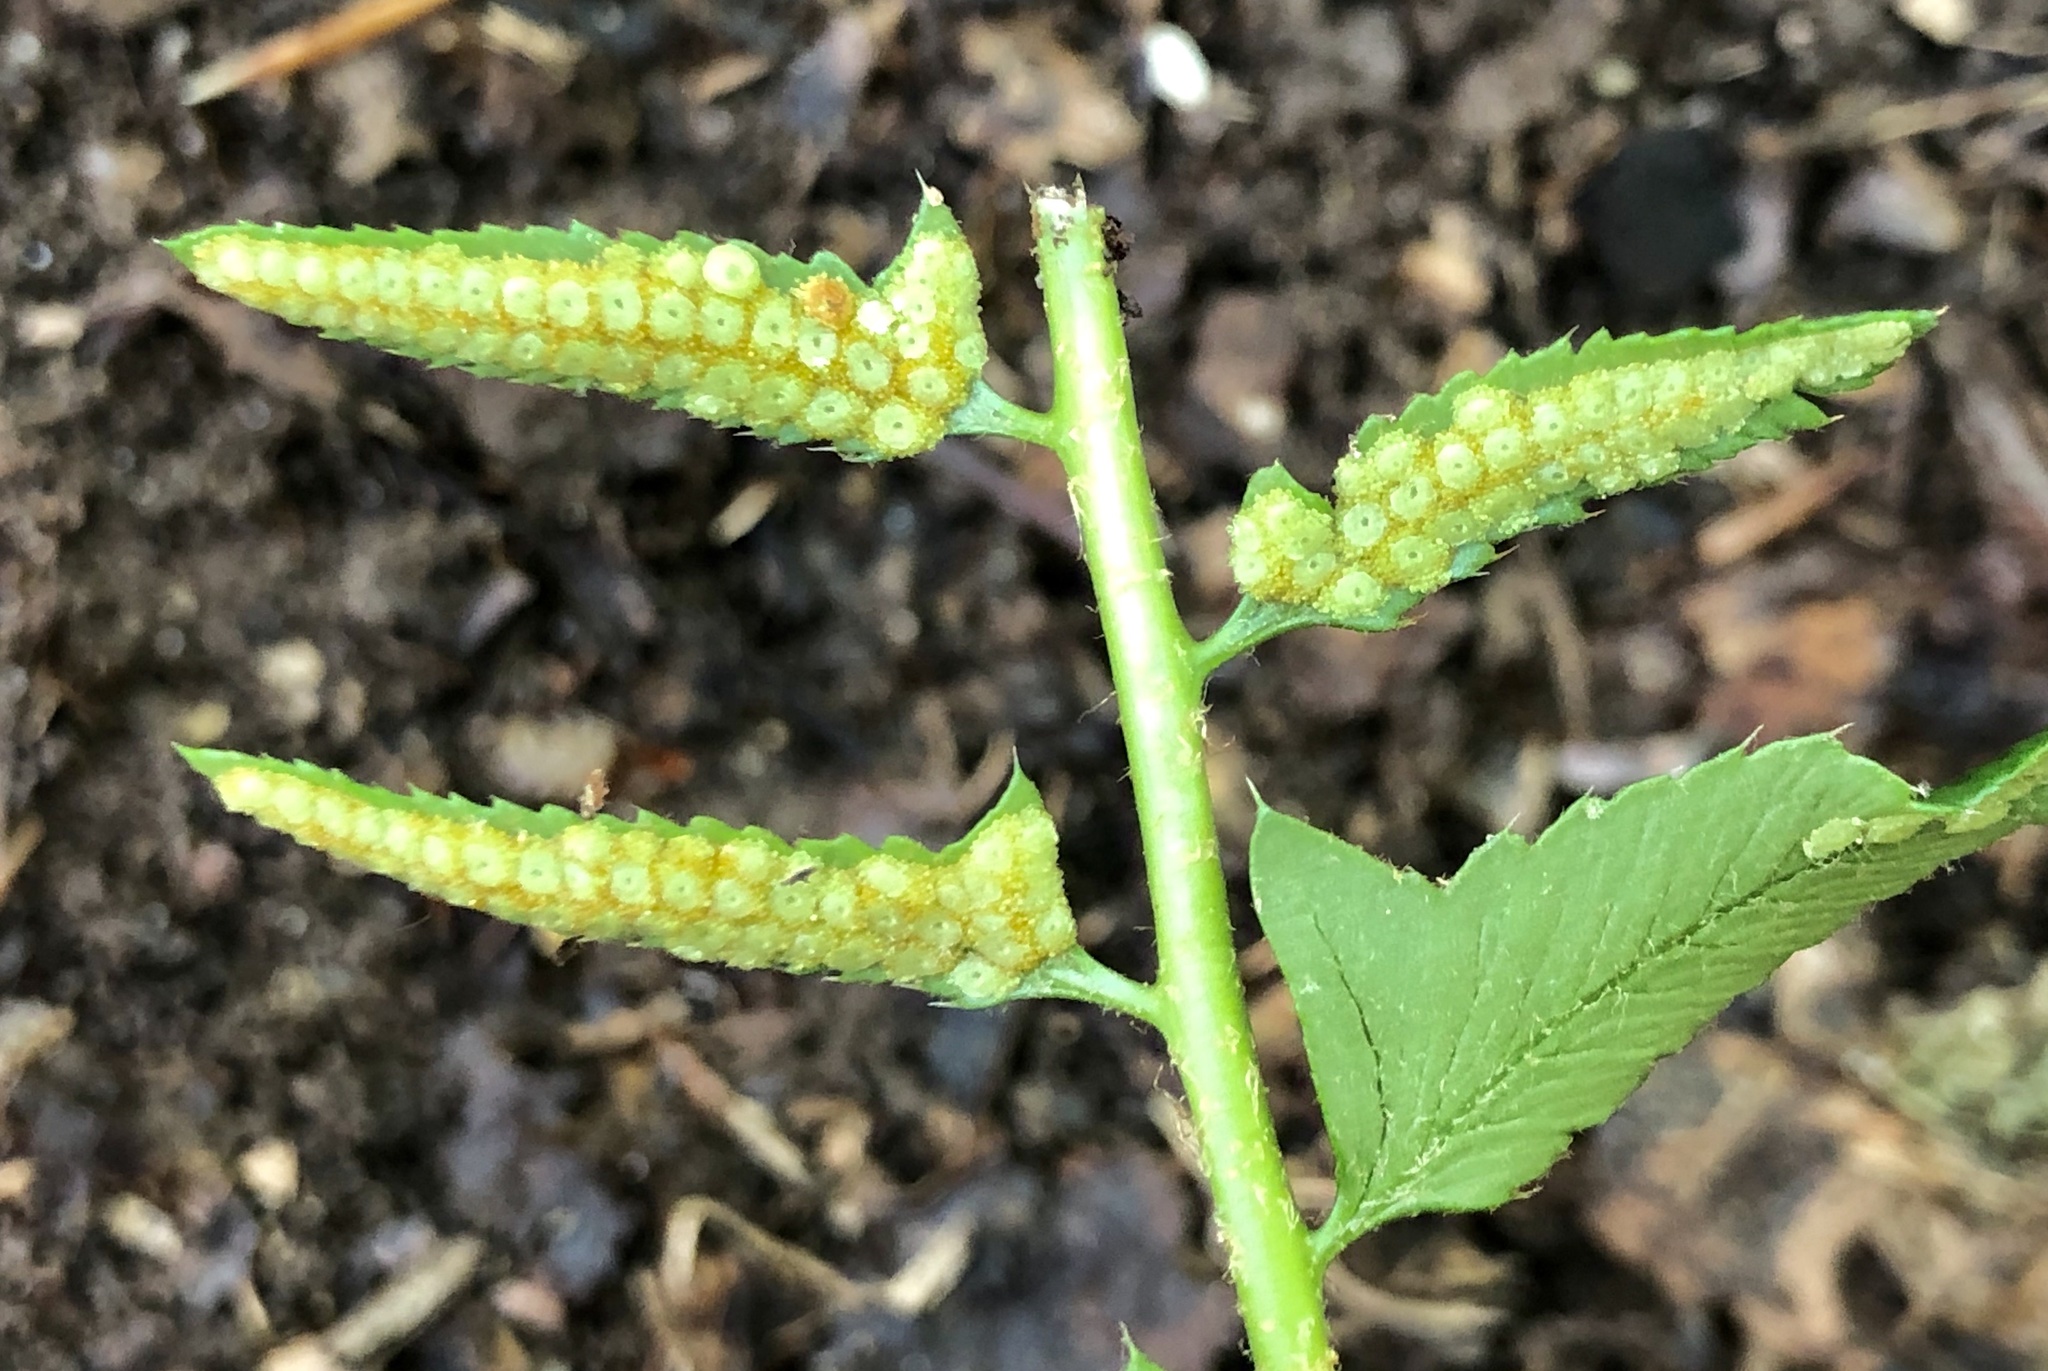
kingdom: Plantae
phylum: Tracheophyta
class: Polypodiopsida
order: Polypodiales
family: Dryopteridaceae
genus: Polystichum
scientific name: Polystichum acrostichoides
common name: Christmas fern
